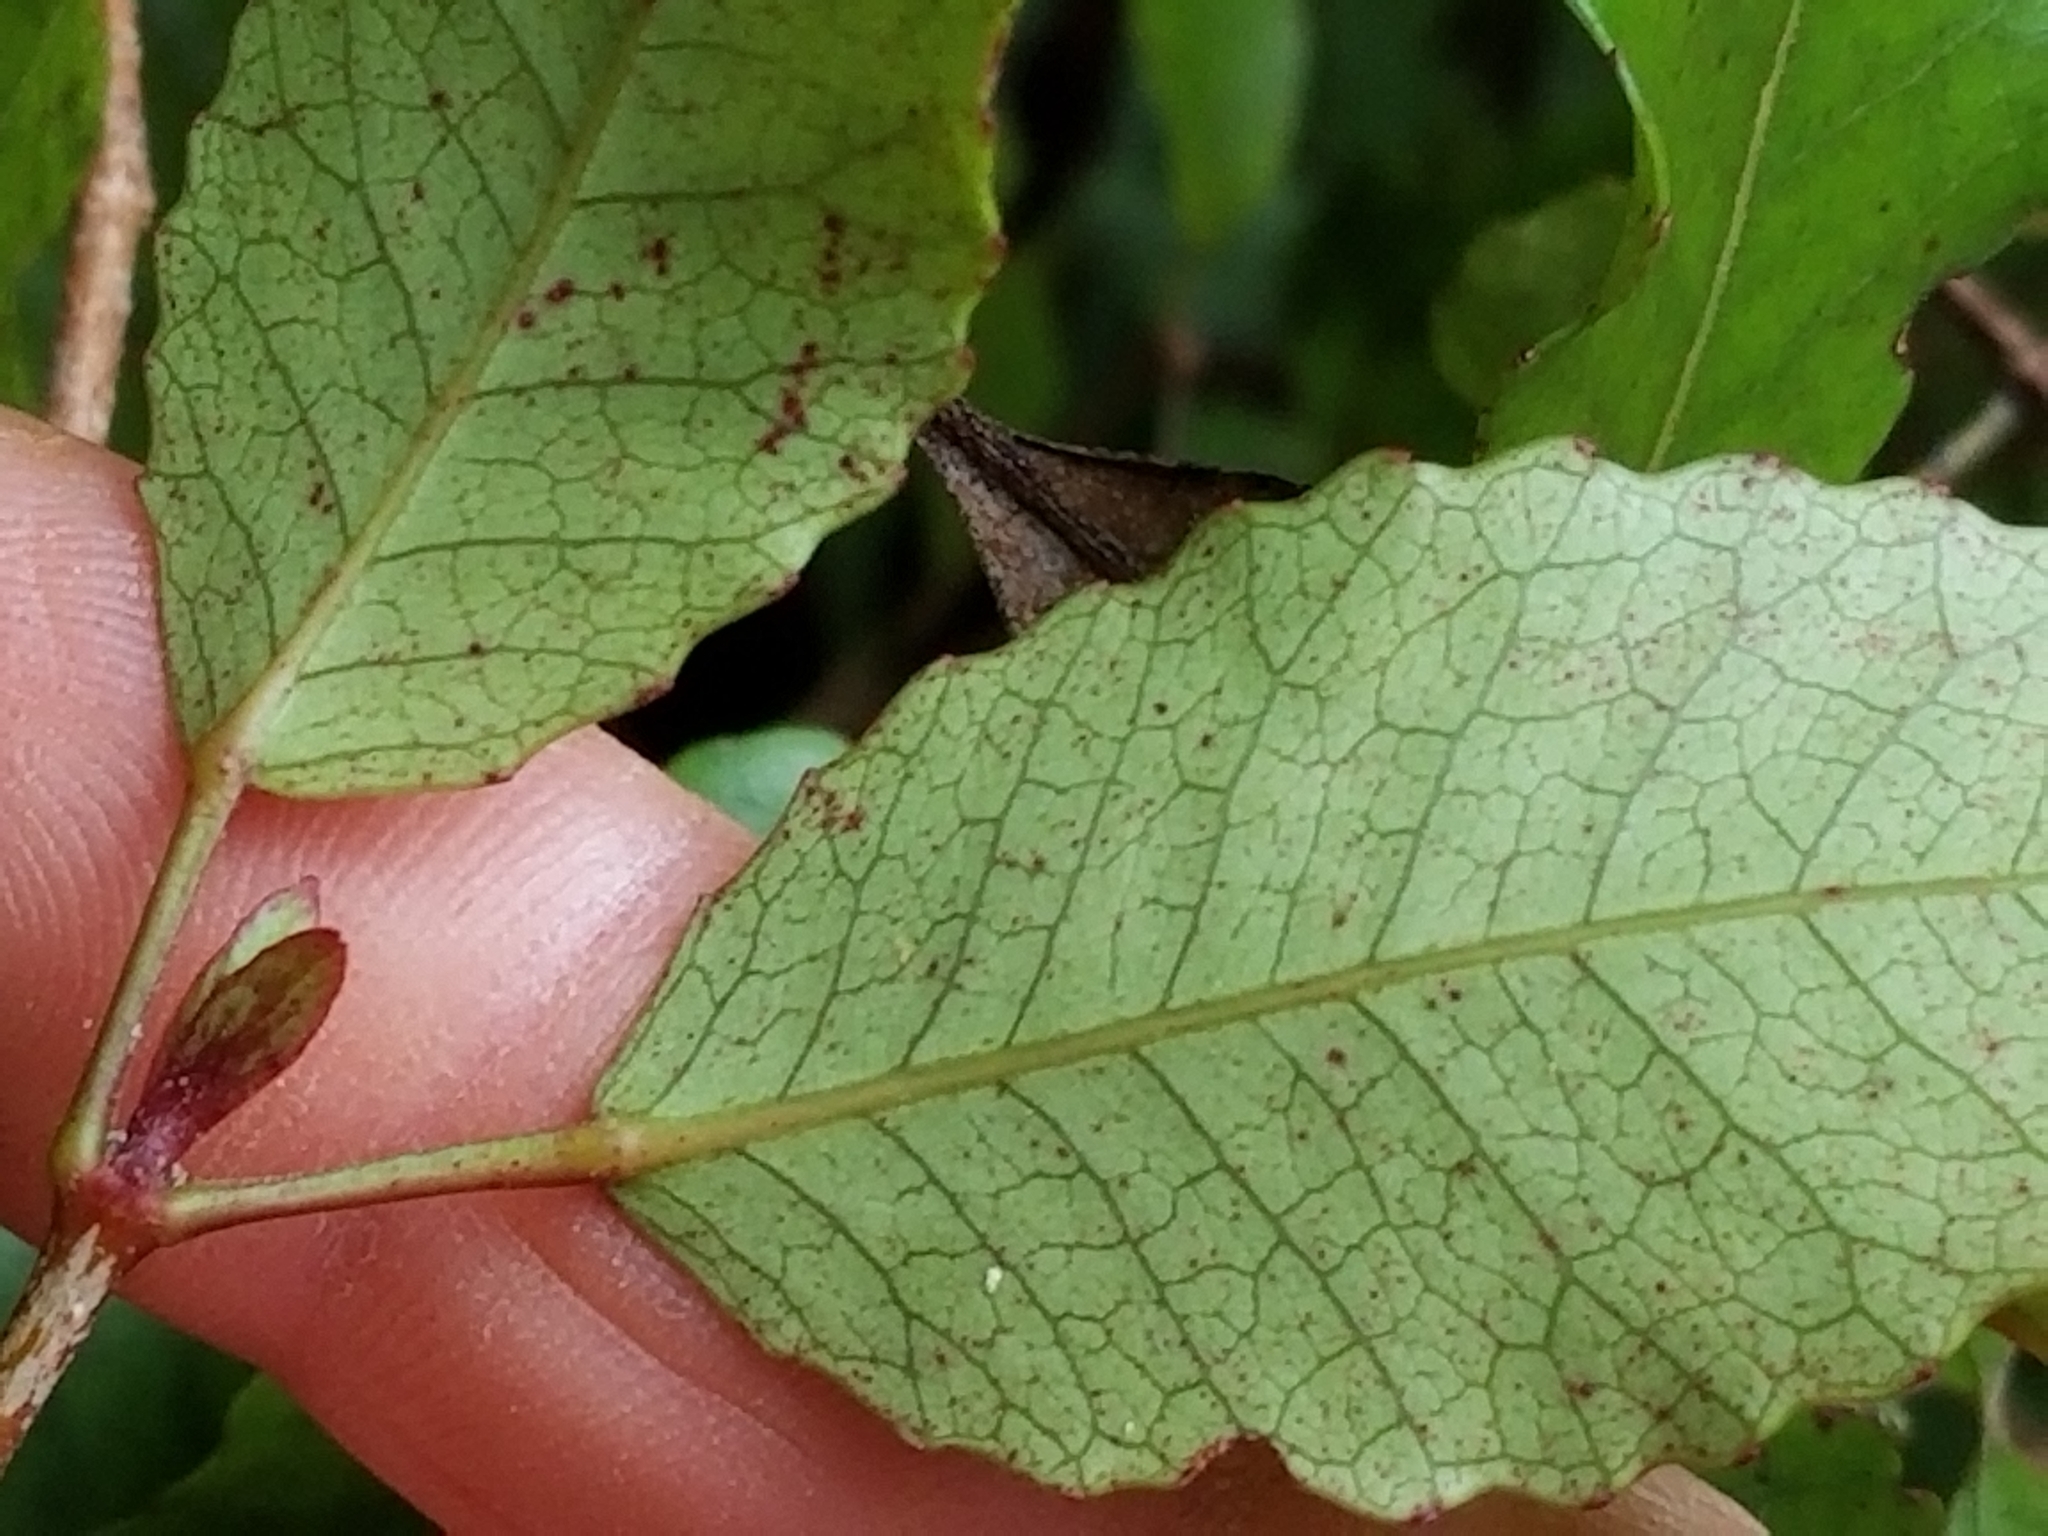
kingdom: Plantae
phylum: Tracheophyta
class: Magnoliopsida
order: Oxalidales
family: Cunoniaceae
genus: Pterophylla
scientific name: Pterophylla racemosa
